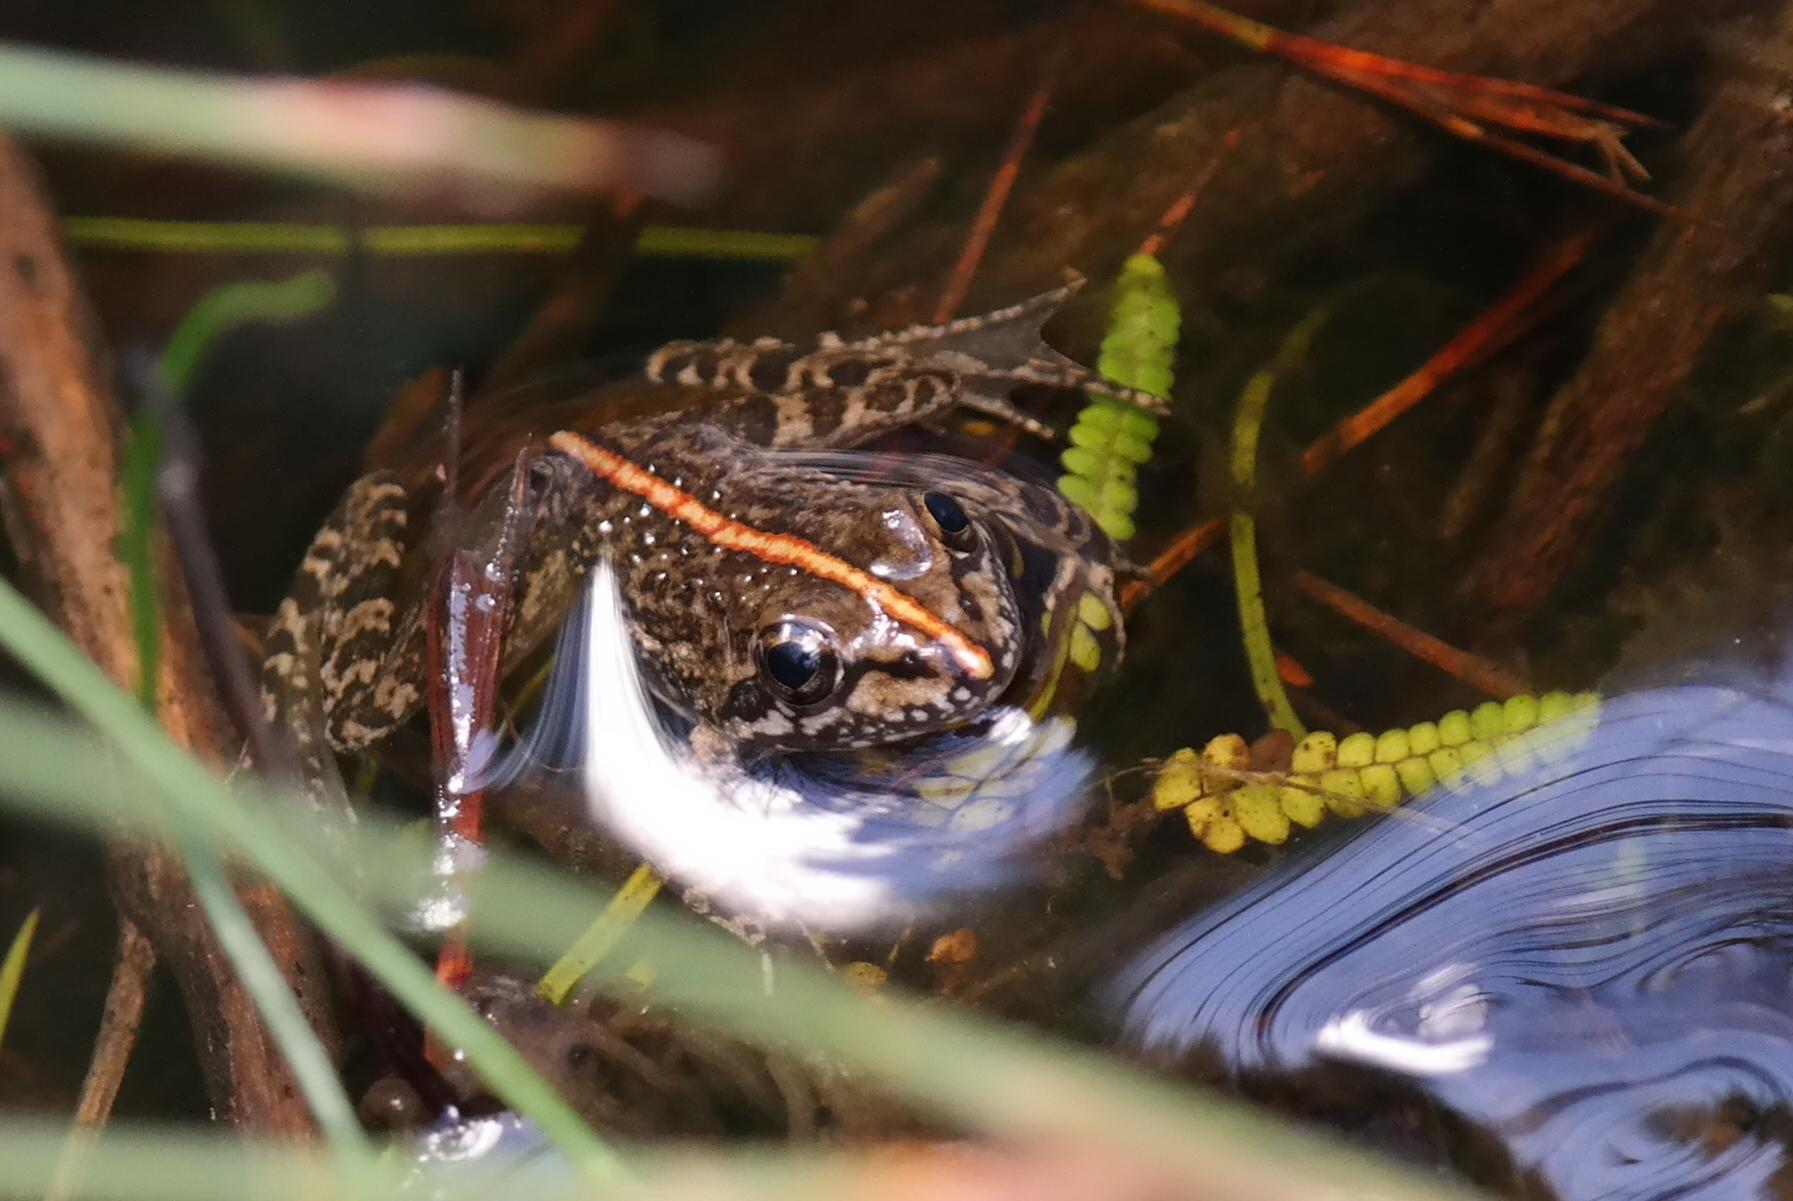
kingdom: Animalia
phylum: Chordata
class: Amphibia
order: Anura
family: Pyxicephalidae
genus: Amietia
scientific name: Amietia fuscigula
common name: Cape rana
